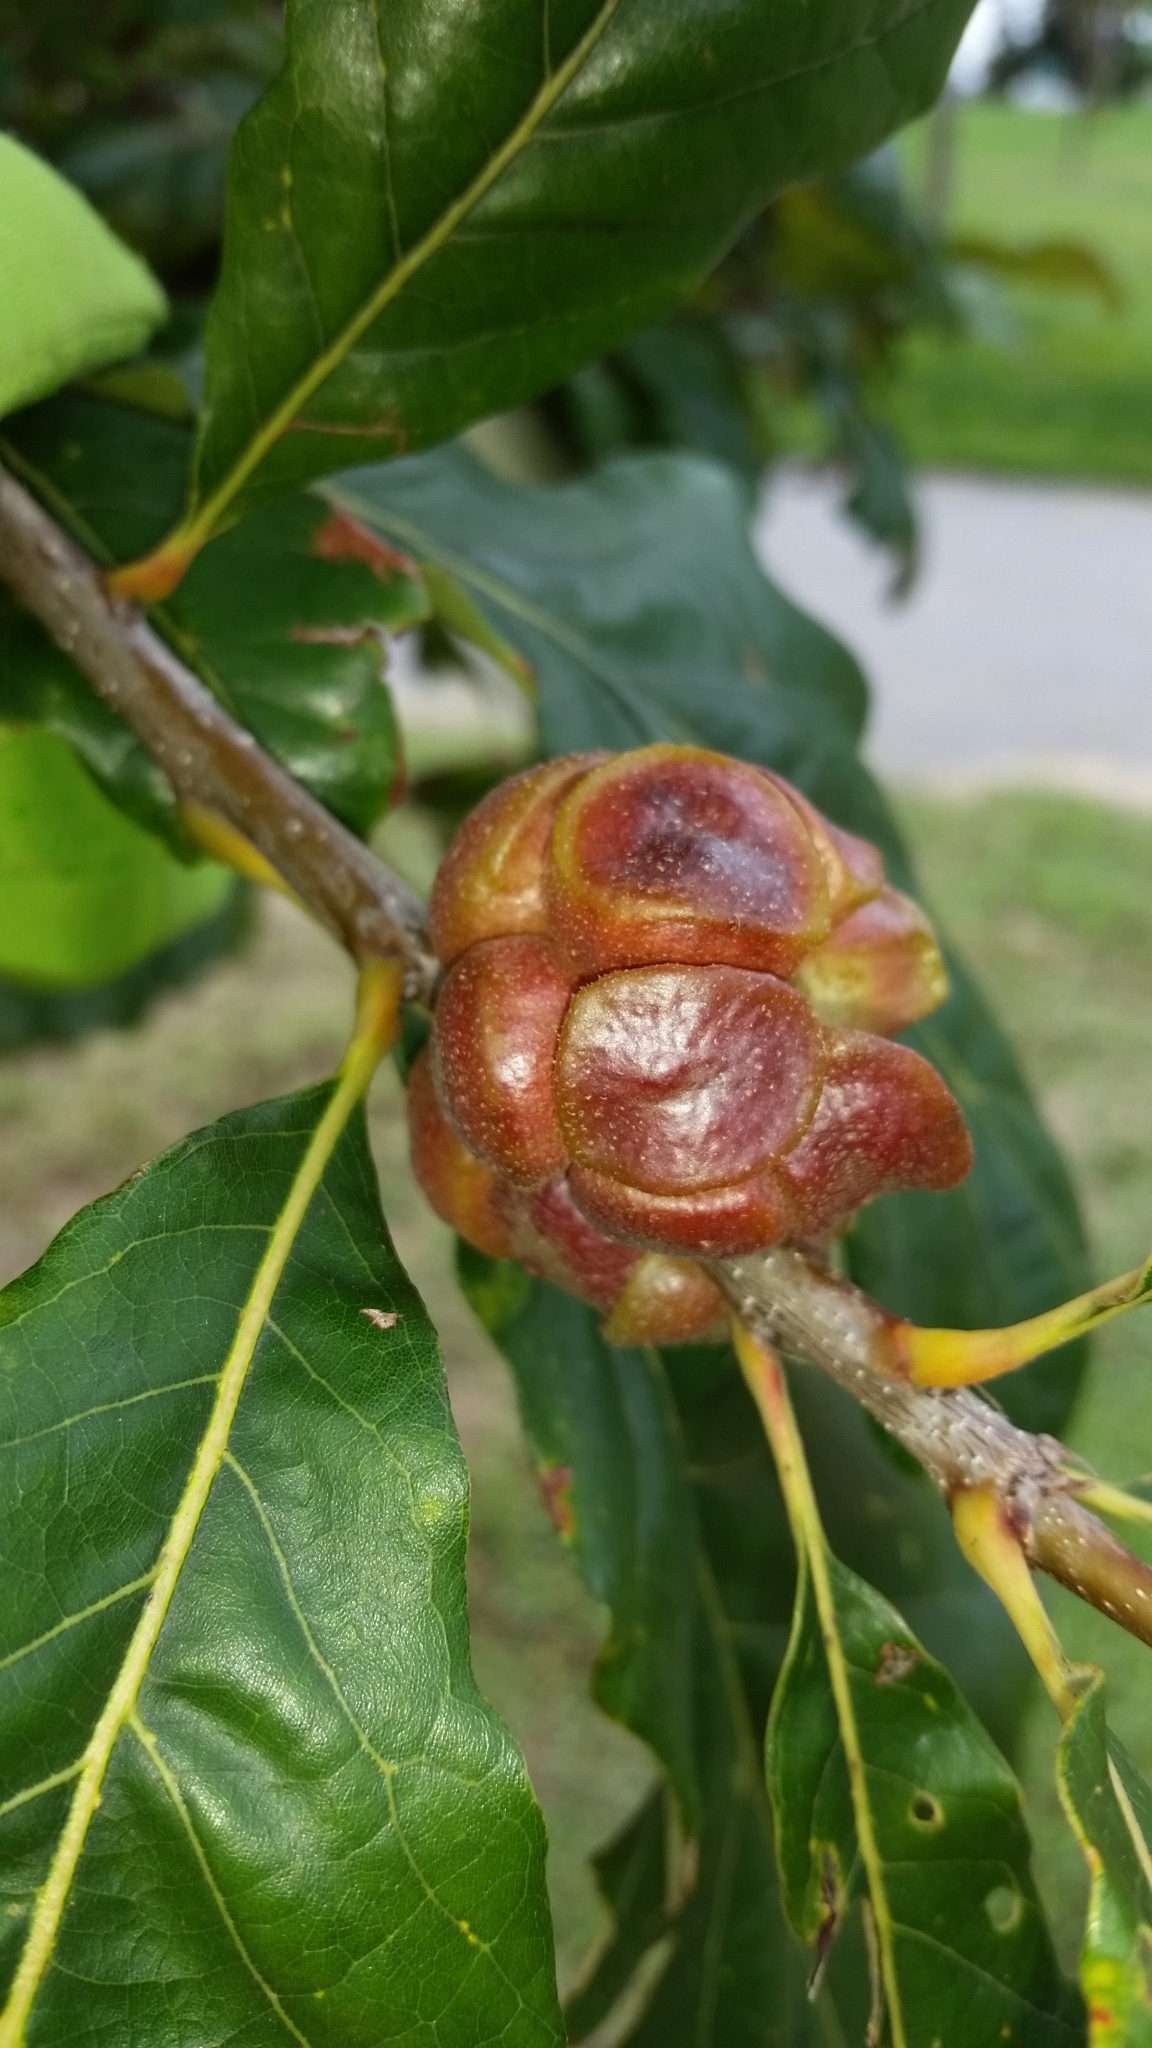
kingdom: Animalia
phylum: Arthropoda
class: Insecta
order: Hymenoptera
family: Cynipidae
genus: Andricus
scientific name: Andricus
